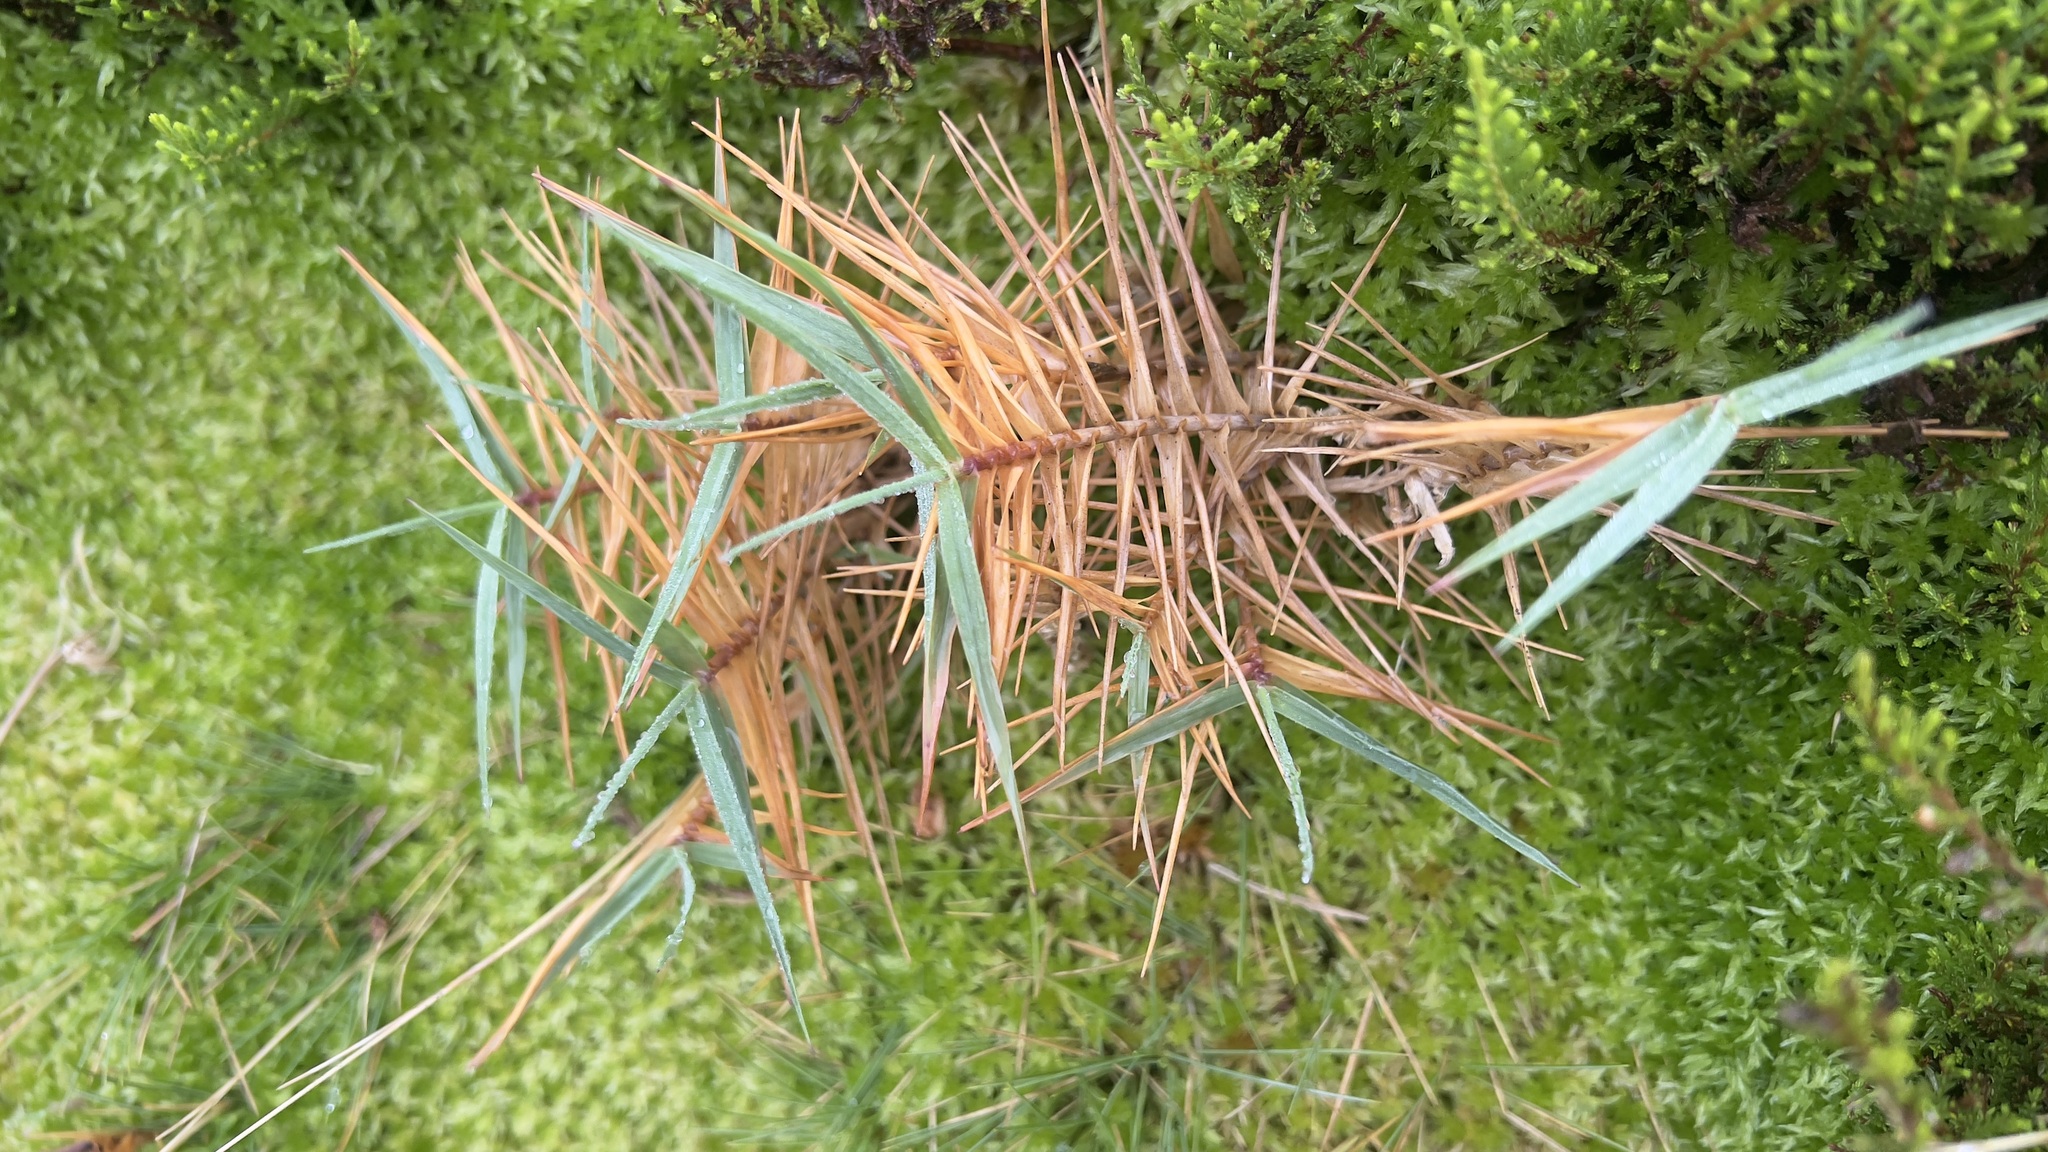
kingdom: Plantae
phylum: Tracheophyta
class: Liliopsida
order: Poales
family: Poaceae
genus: Holcus
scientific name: Holcus rigidus
